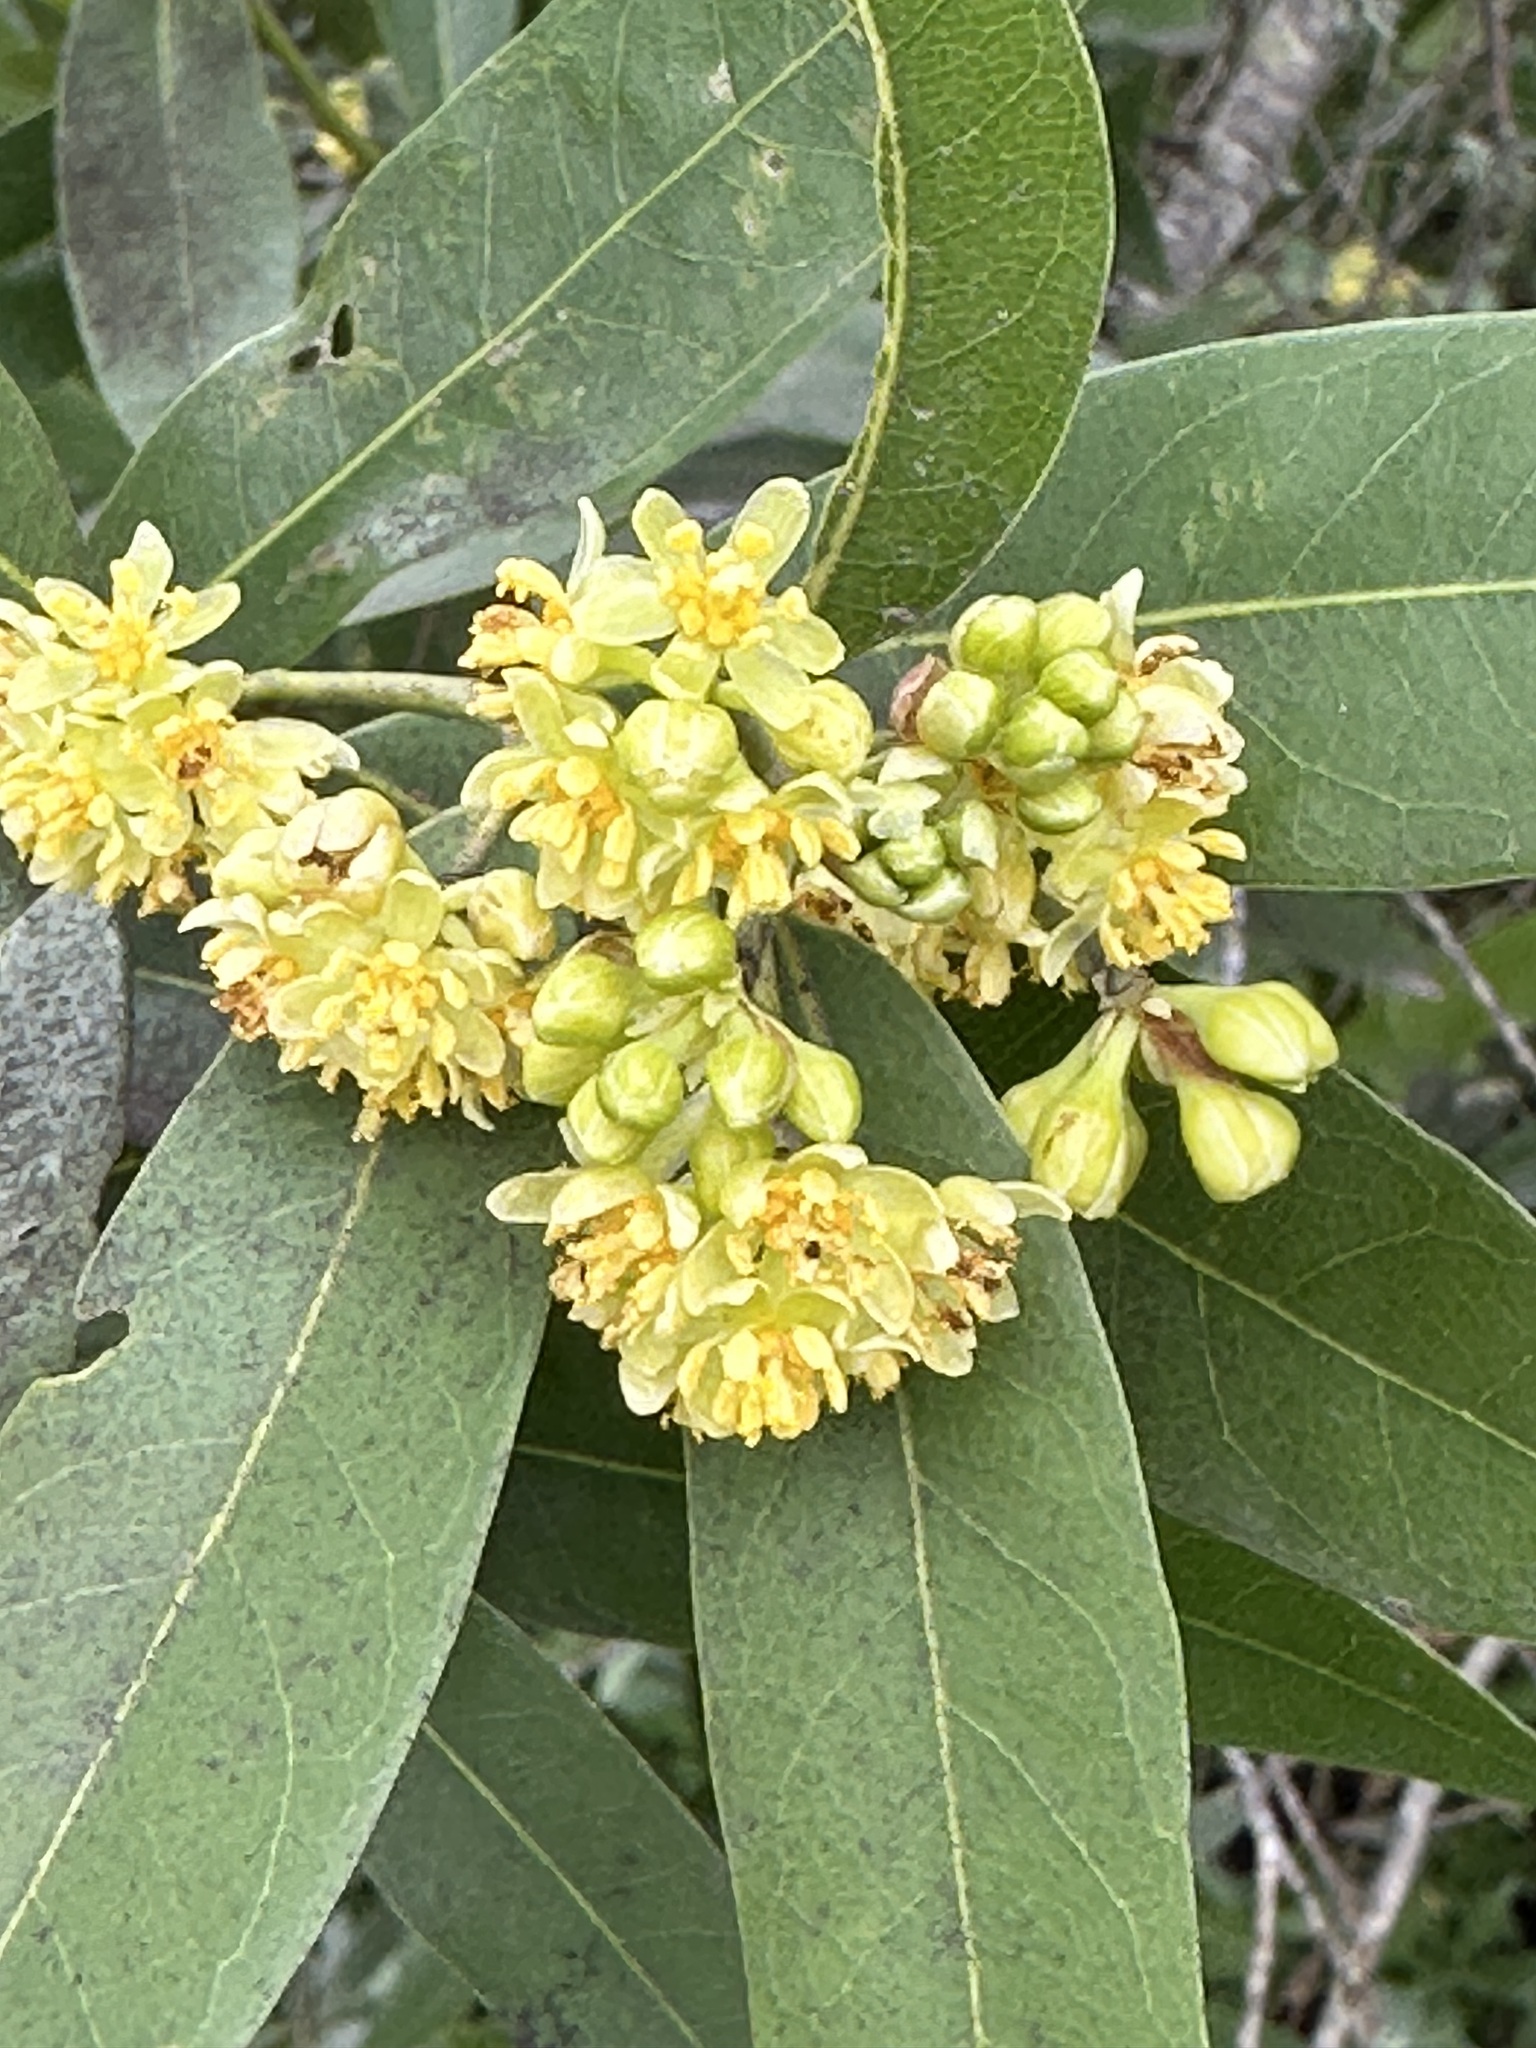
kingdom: Plantae
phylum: Tracheophyta
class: Magnoliopsida
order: Laurales
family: Lauraceae
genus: Umbellularia
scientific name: Umbellularia californica
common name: California bay
